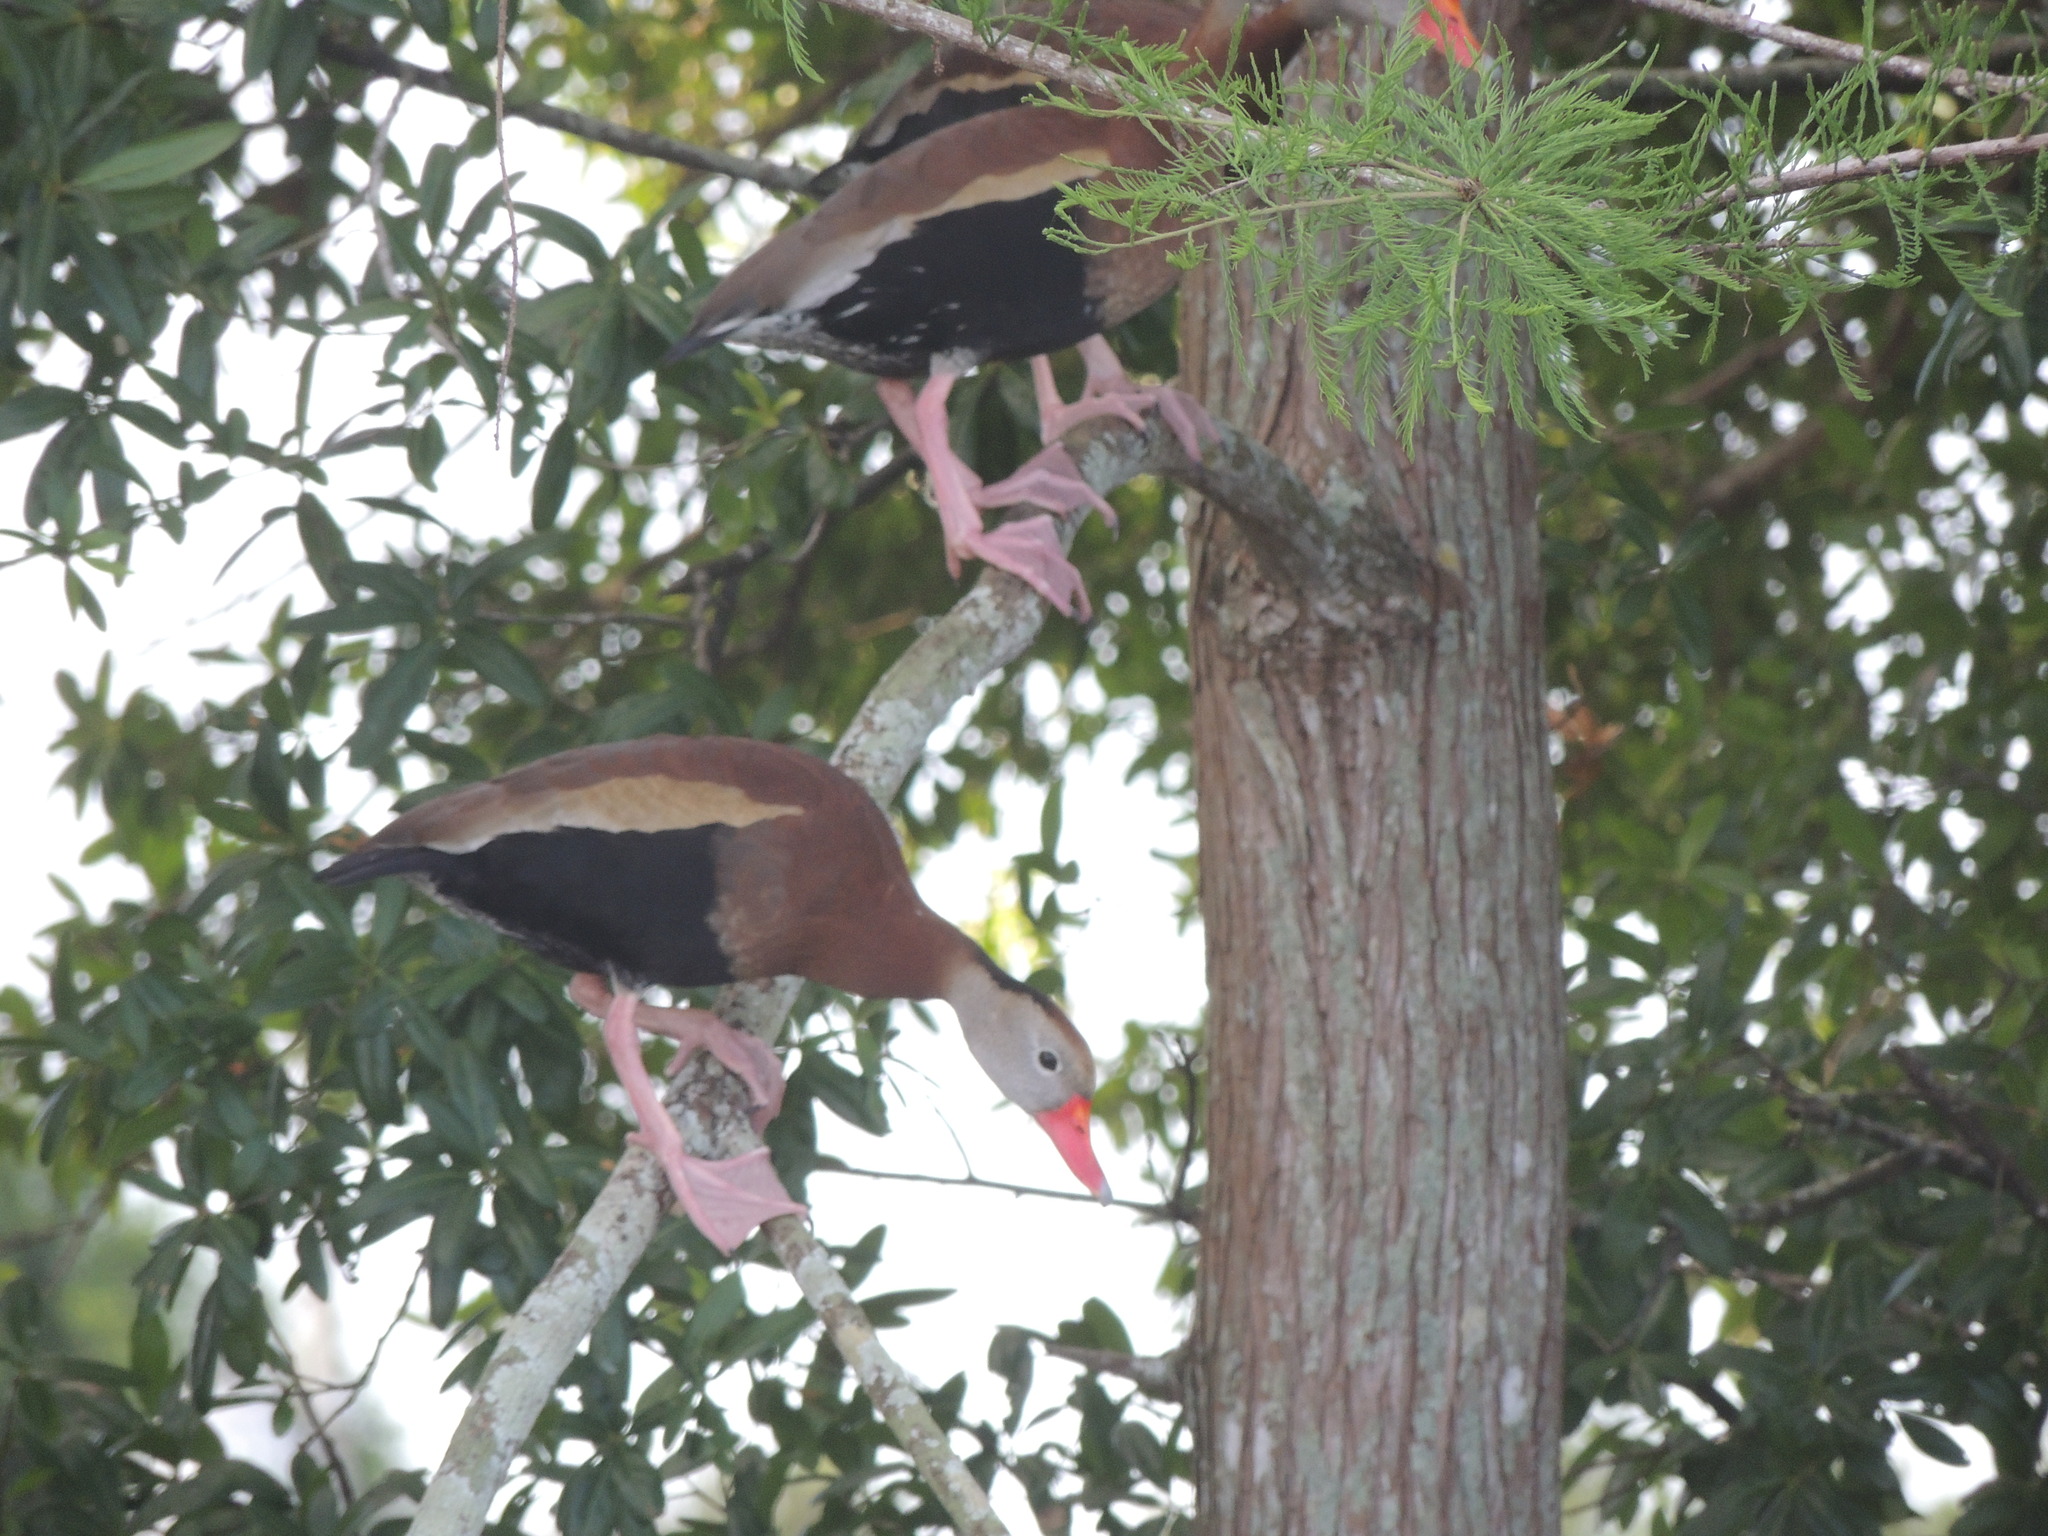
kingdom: Animalia
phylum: Chordata
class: Aves
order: Anseriformes
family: Anatidae
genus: Dendrocygna
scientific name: Dendrocygna autumnalis
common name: Black-bellied whistling duck
